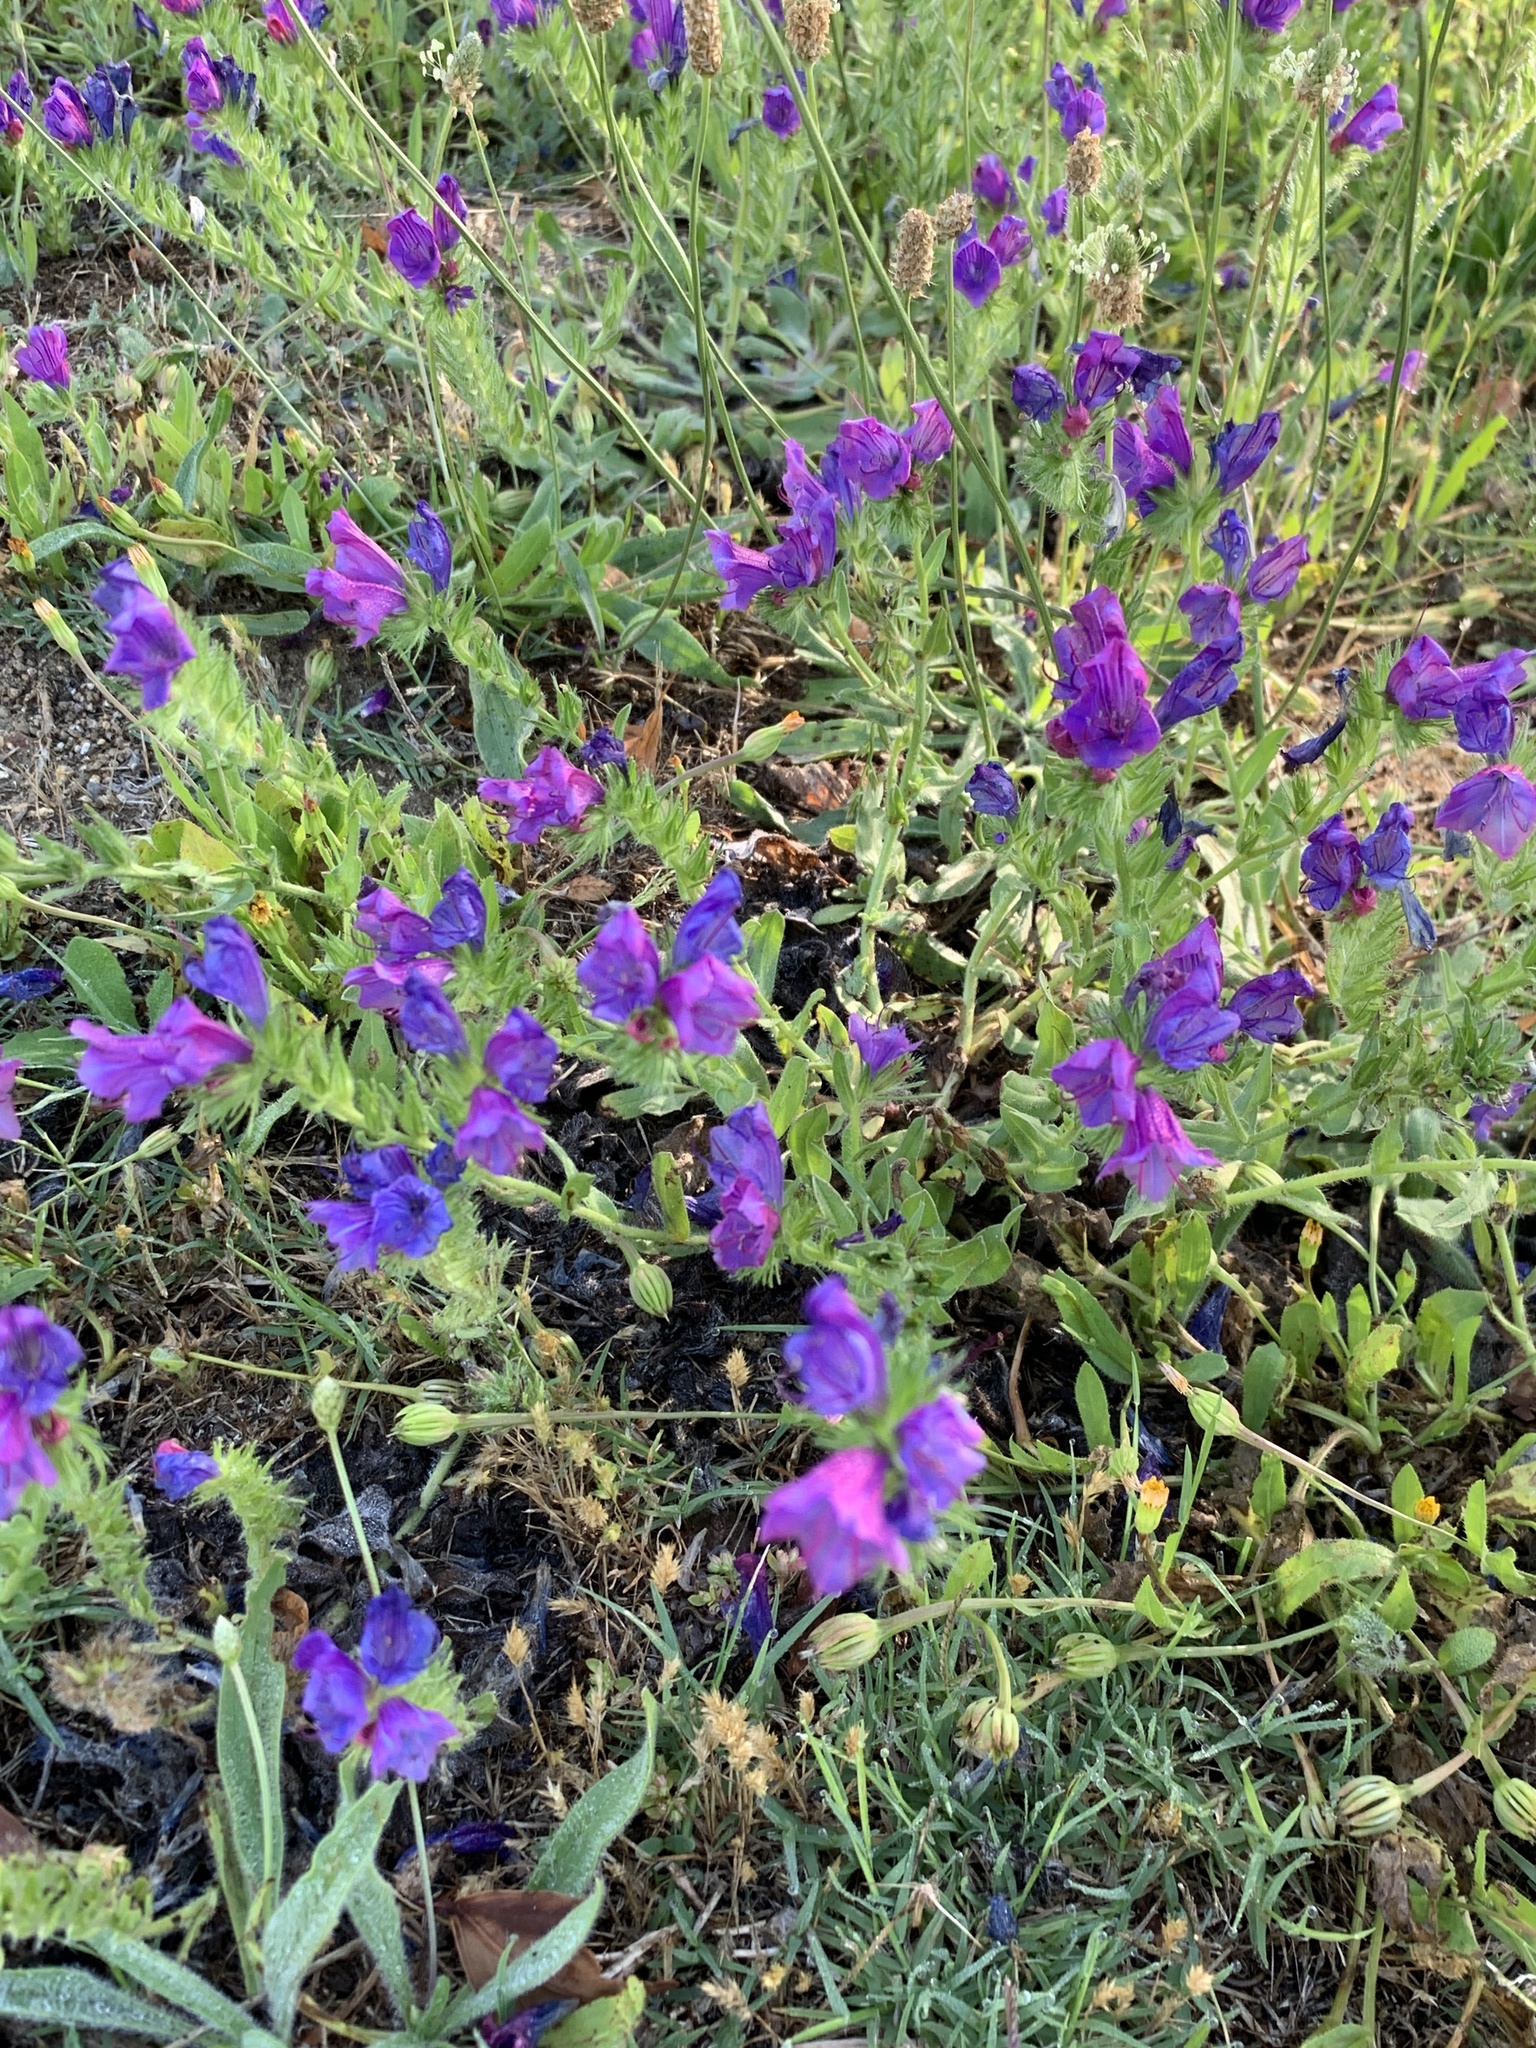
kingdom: Plantae
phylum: Tracheophyta
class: Magnoliopsida
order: Boraginales
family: Boraginaceae
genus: Echium
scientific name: Echium plantagineum
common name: Purple viper's-bugloss
